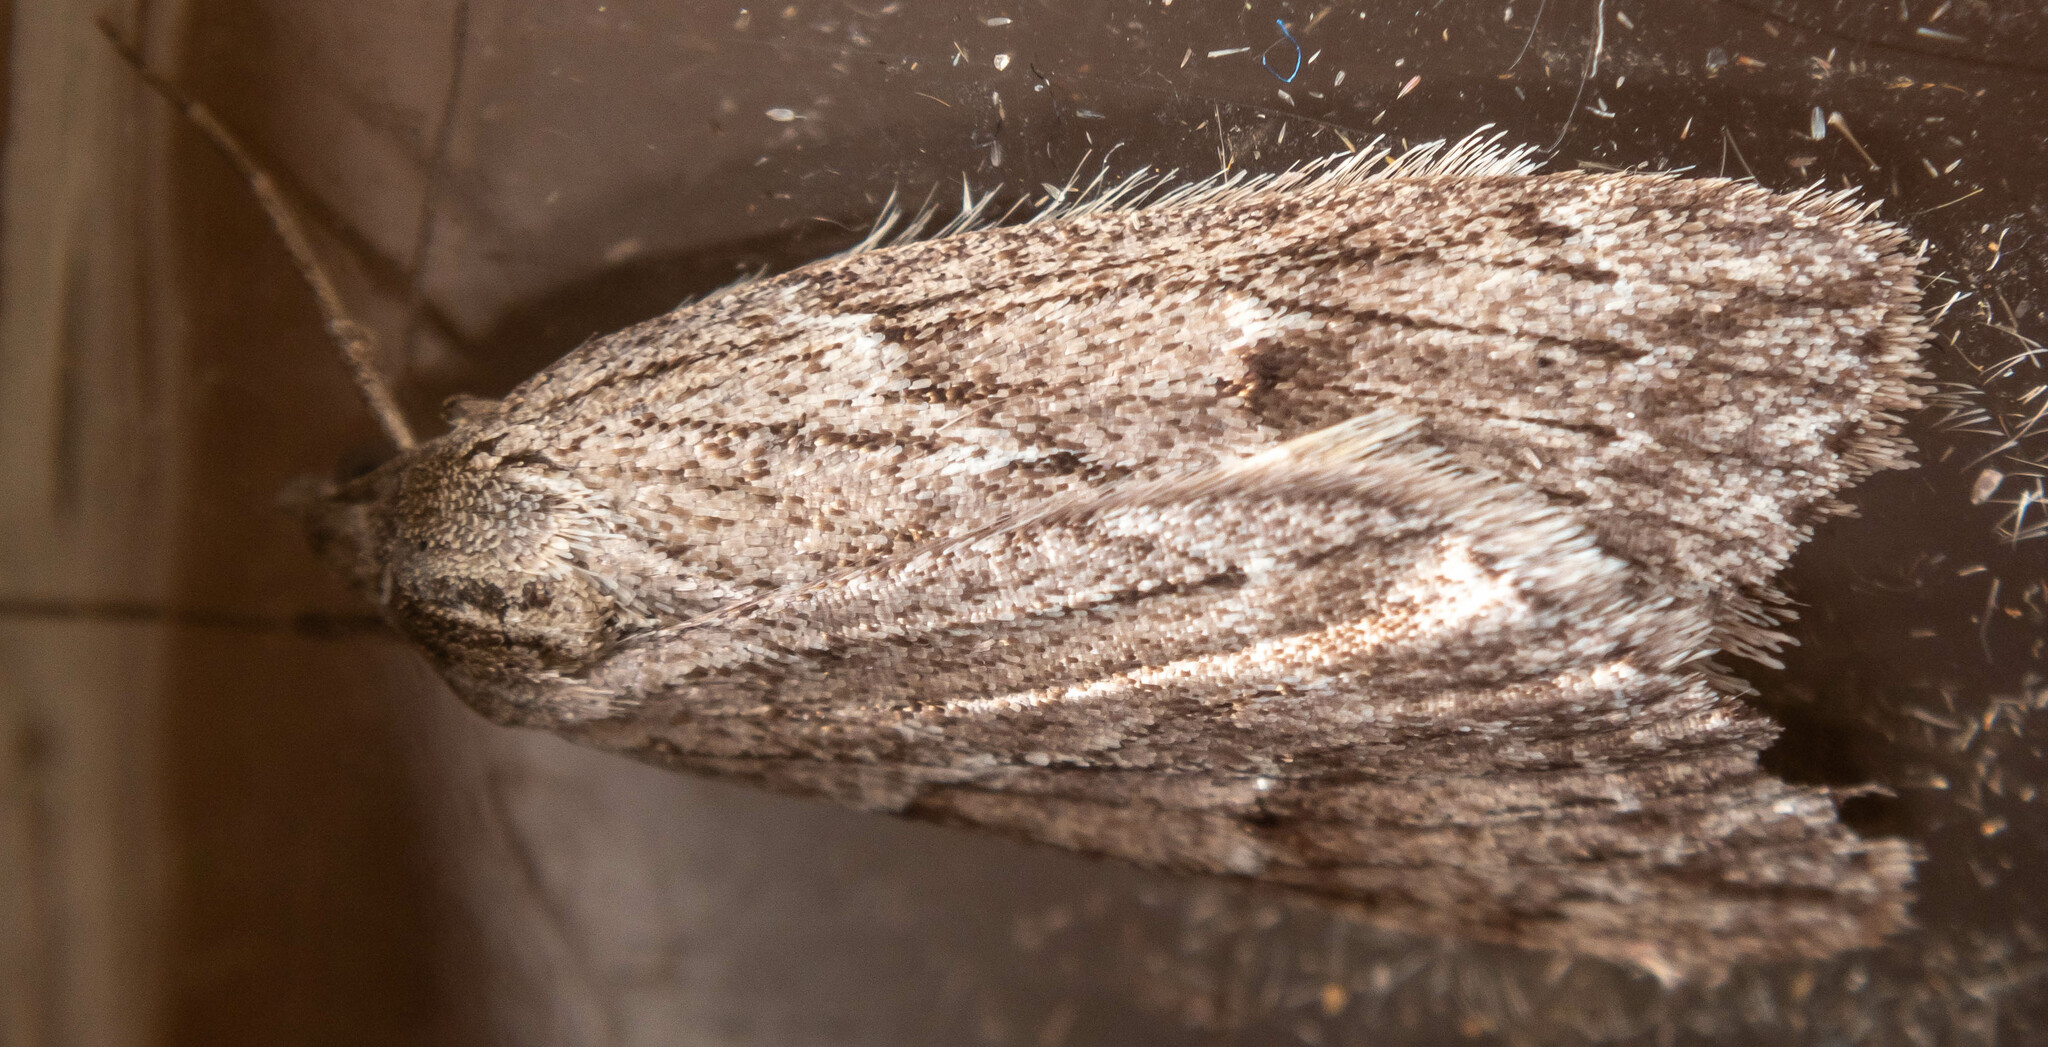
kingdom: Animalia
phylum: Arthropoda
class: Insecta
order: Lepidoptera
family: Geometridae
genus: Pachycnemia
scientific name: Pachycnemia hippocastanaria
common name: Horse chestnut
